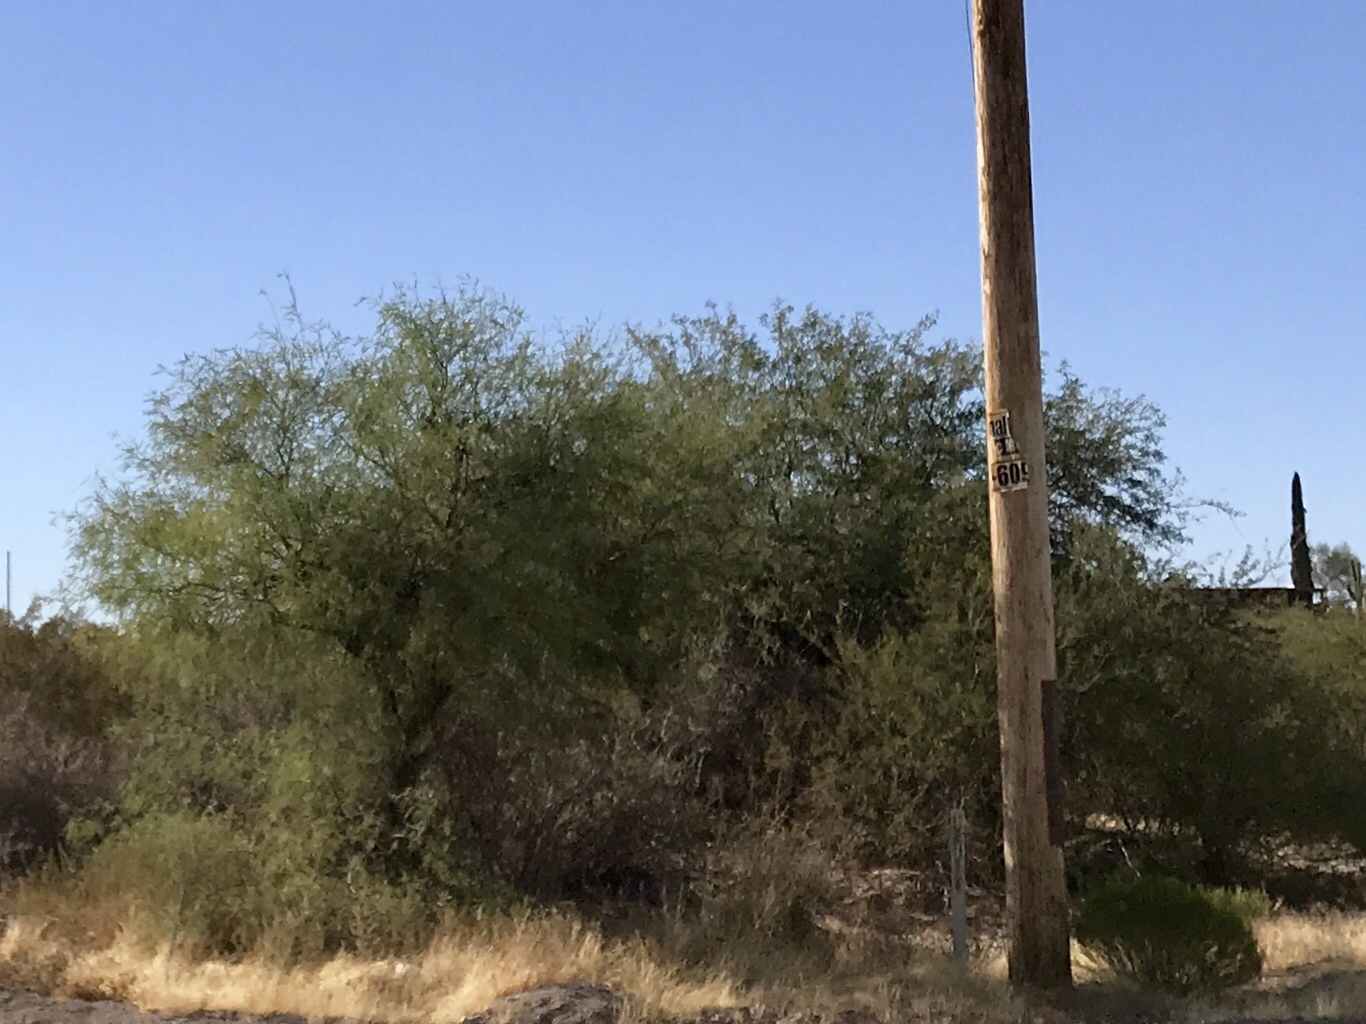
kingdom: Plantae
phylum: Tracheophyta
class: Magnoliopsida
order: Fabales
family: Fabaceae
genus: Parkinsonia
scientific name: Parkinsonia florida
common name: Blue paloverde
